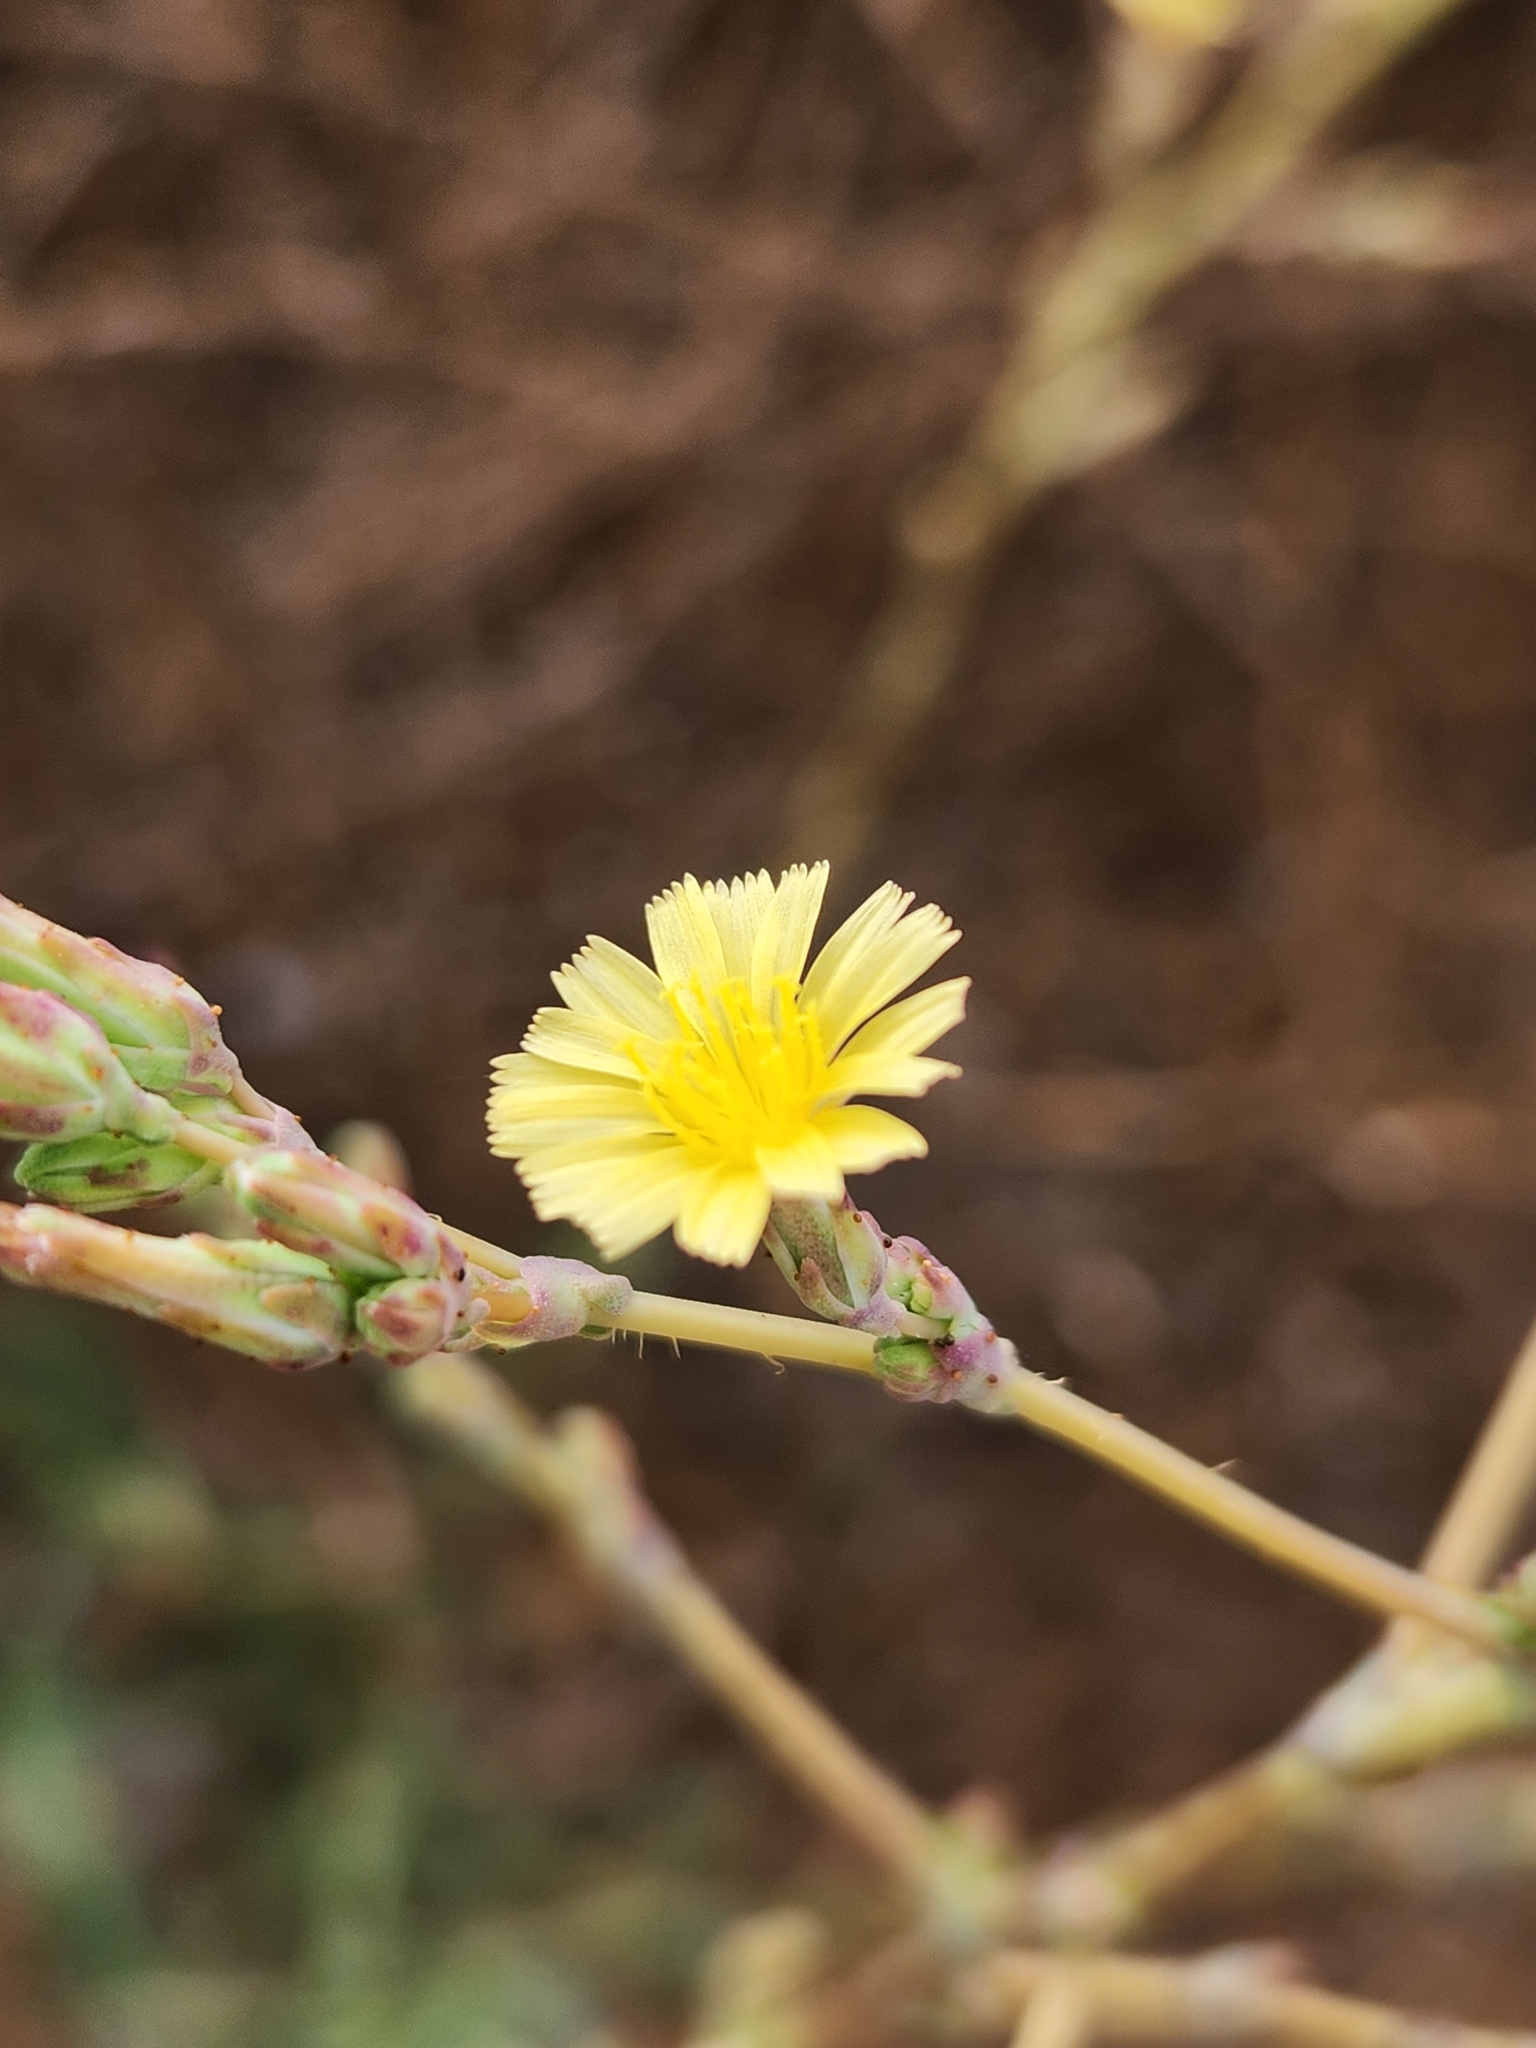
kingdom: Plantae
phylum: Tracheophyta
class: Magnoliopsida
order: Asterales
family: Asteraceae
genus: Lactuca
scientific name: Lactuca serriola
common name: Prickly lettuce
